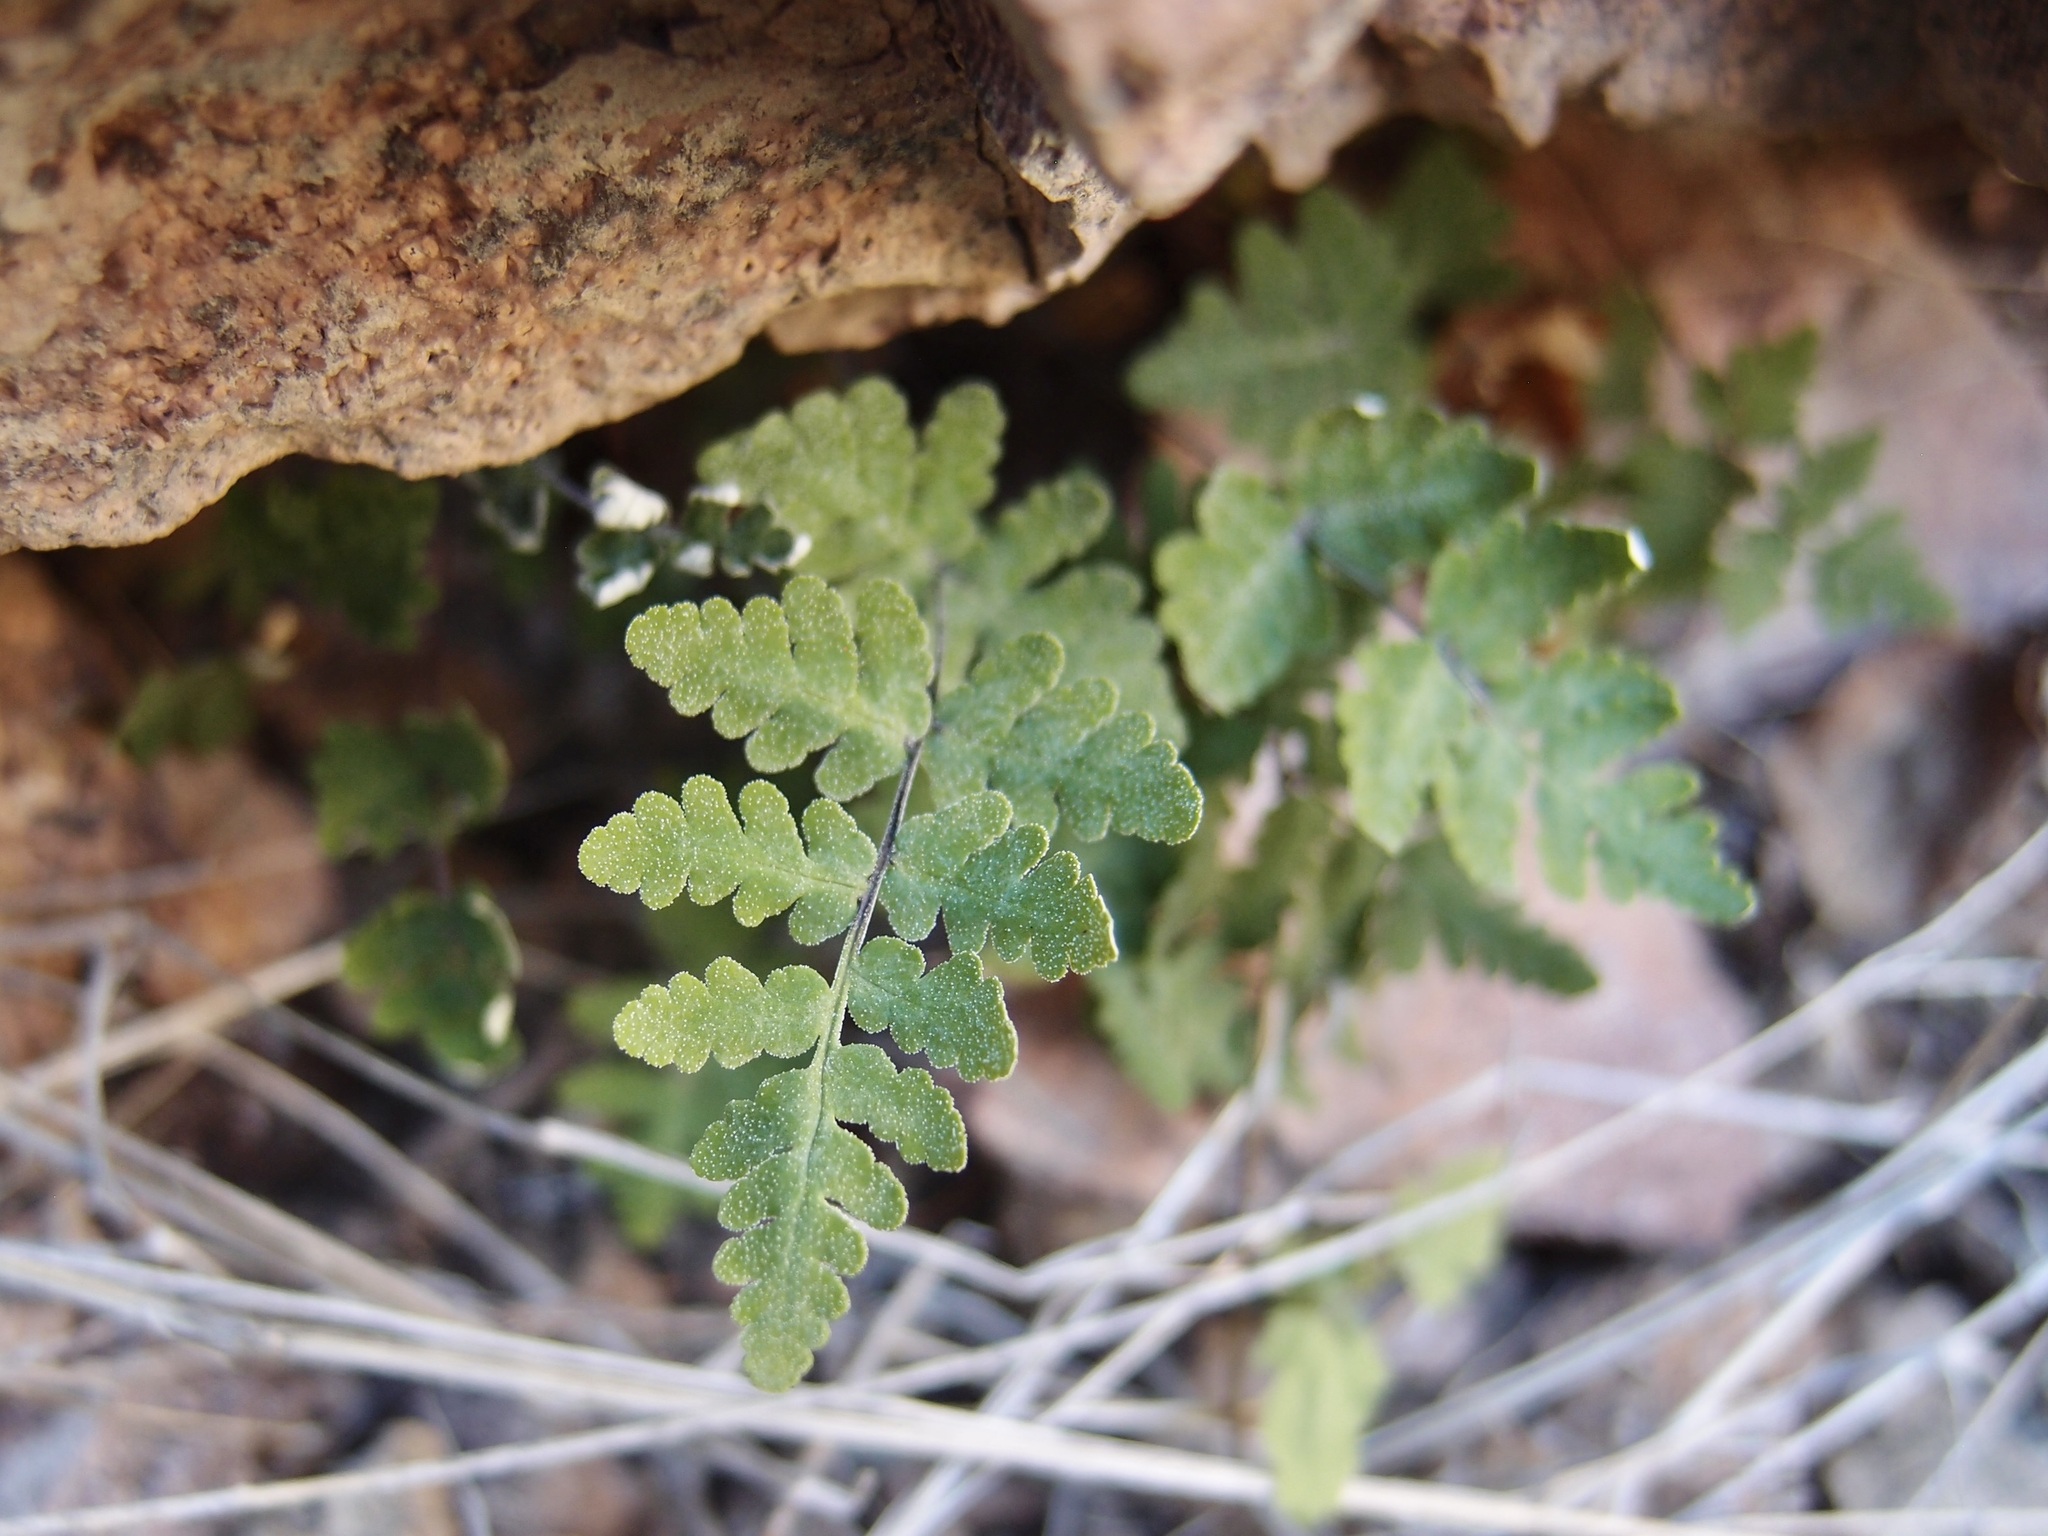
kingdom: Plantae
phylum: Tracheophyta
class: Polypodiopsida
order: Polypodiales
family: Pteridaceae
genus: Notholaena
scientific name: Notholaena lemmonii
